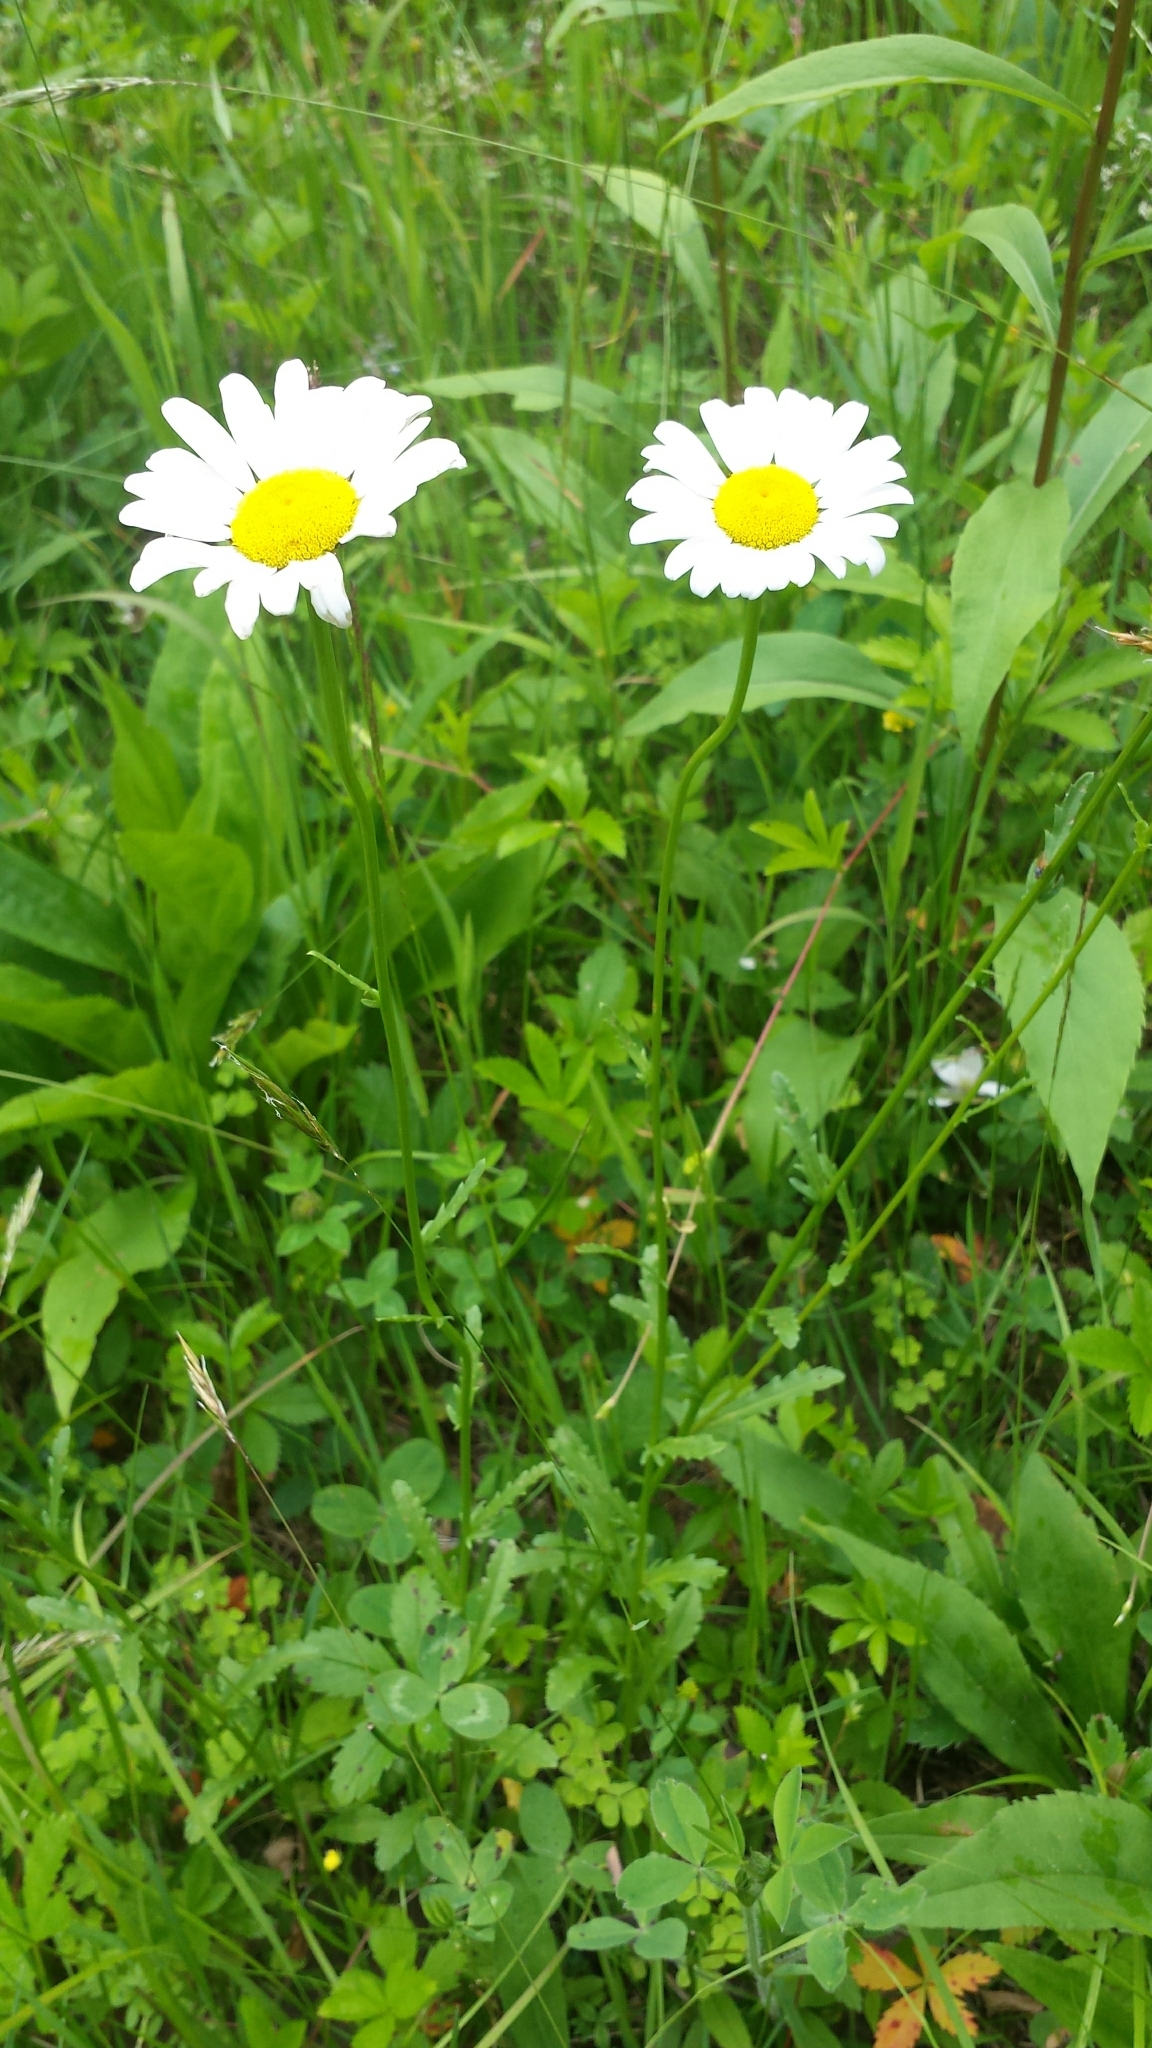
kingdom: Plantae
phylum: Tracheophyta
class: Magnoliopsida
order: Asterales
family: Asteraceae
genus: Leucanthemum
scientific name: Leucanthemum vulgare
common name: Oxeye daisy
